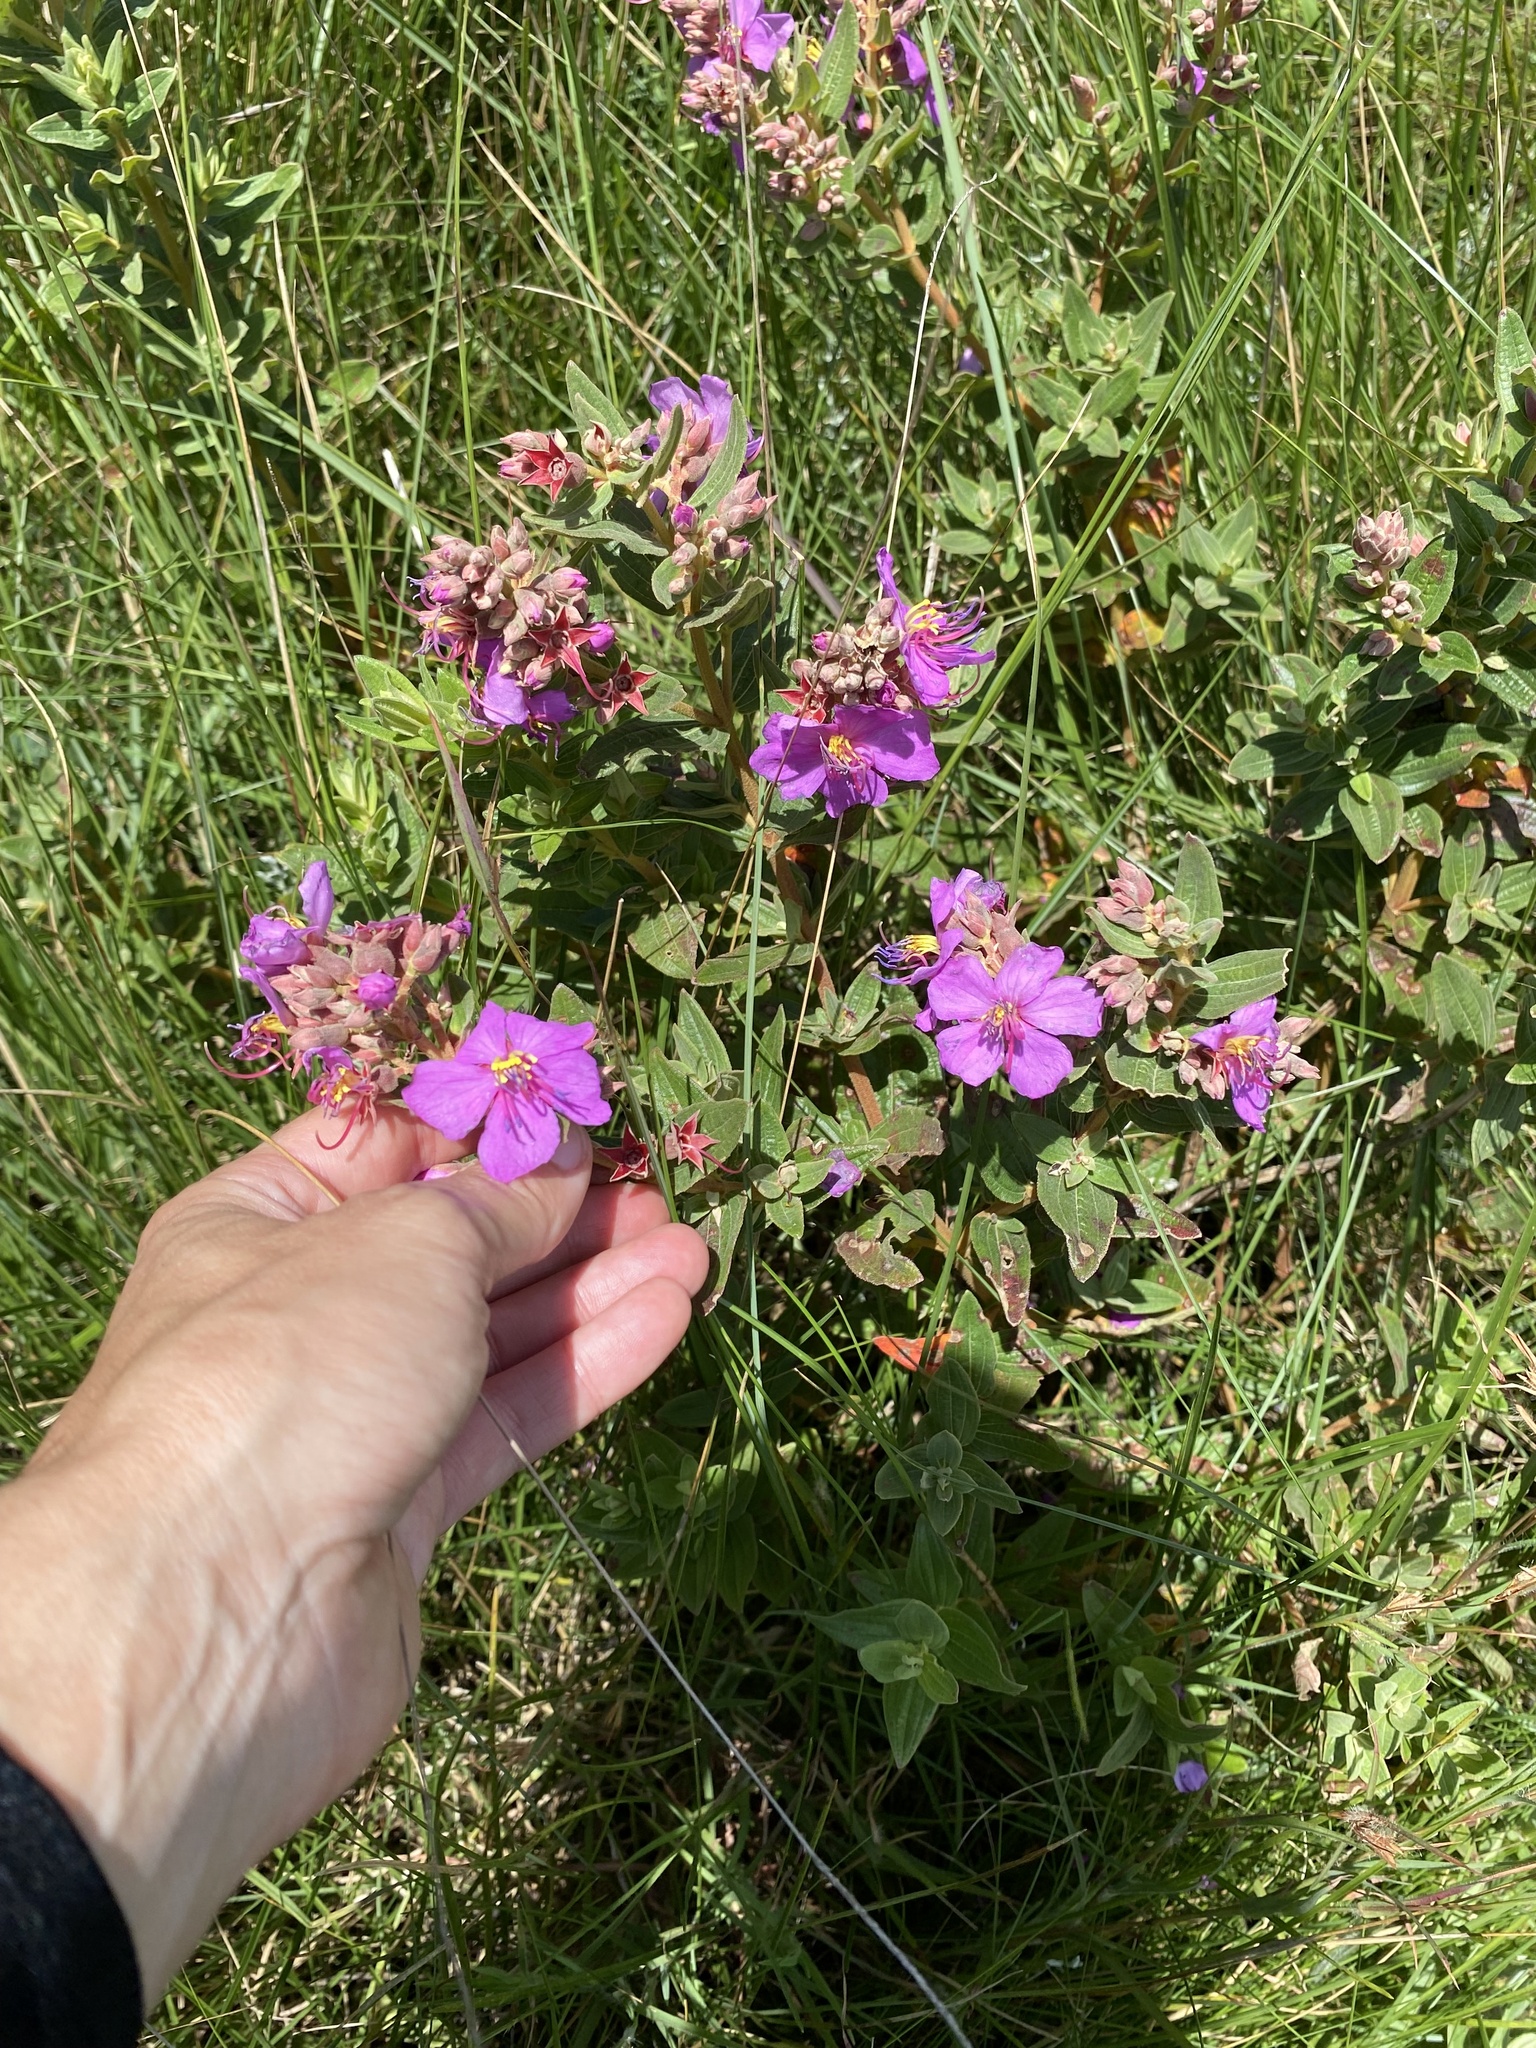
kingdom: Plantae
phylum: Tracheophyta
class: Magnoliopsida
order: Myrtales
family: Melastomataceae
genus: Argyrella
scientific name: Argyrella canescens
